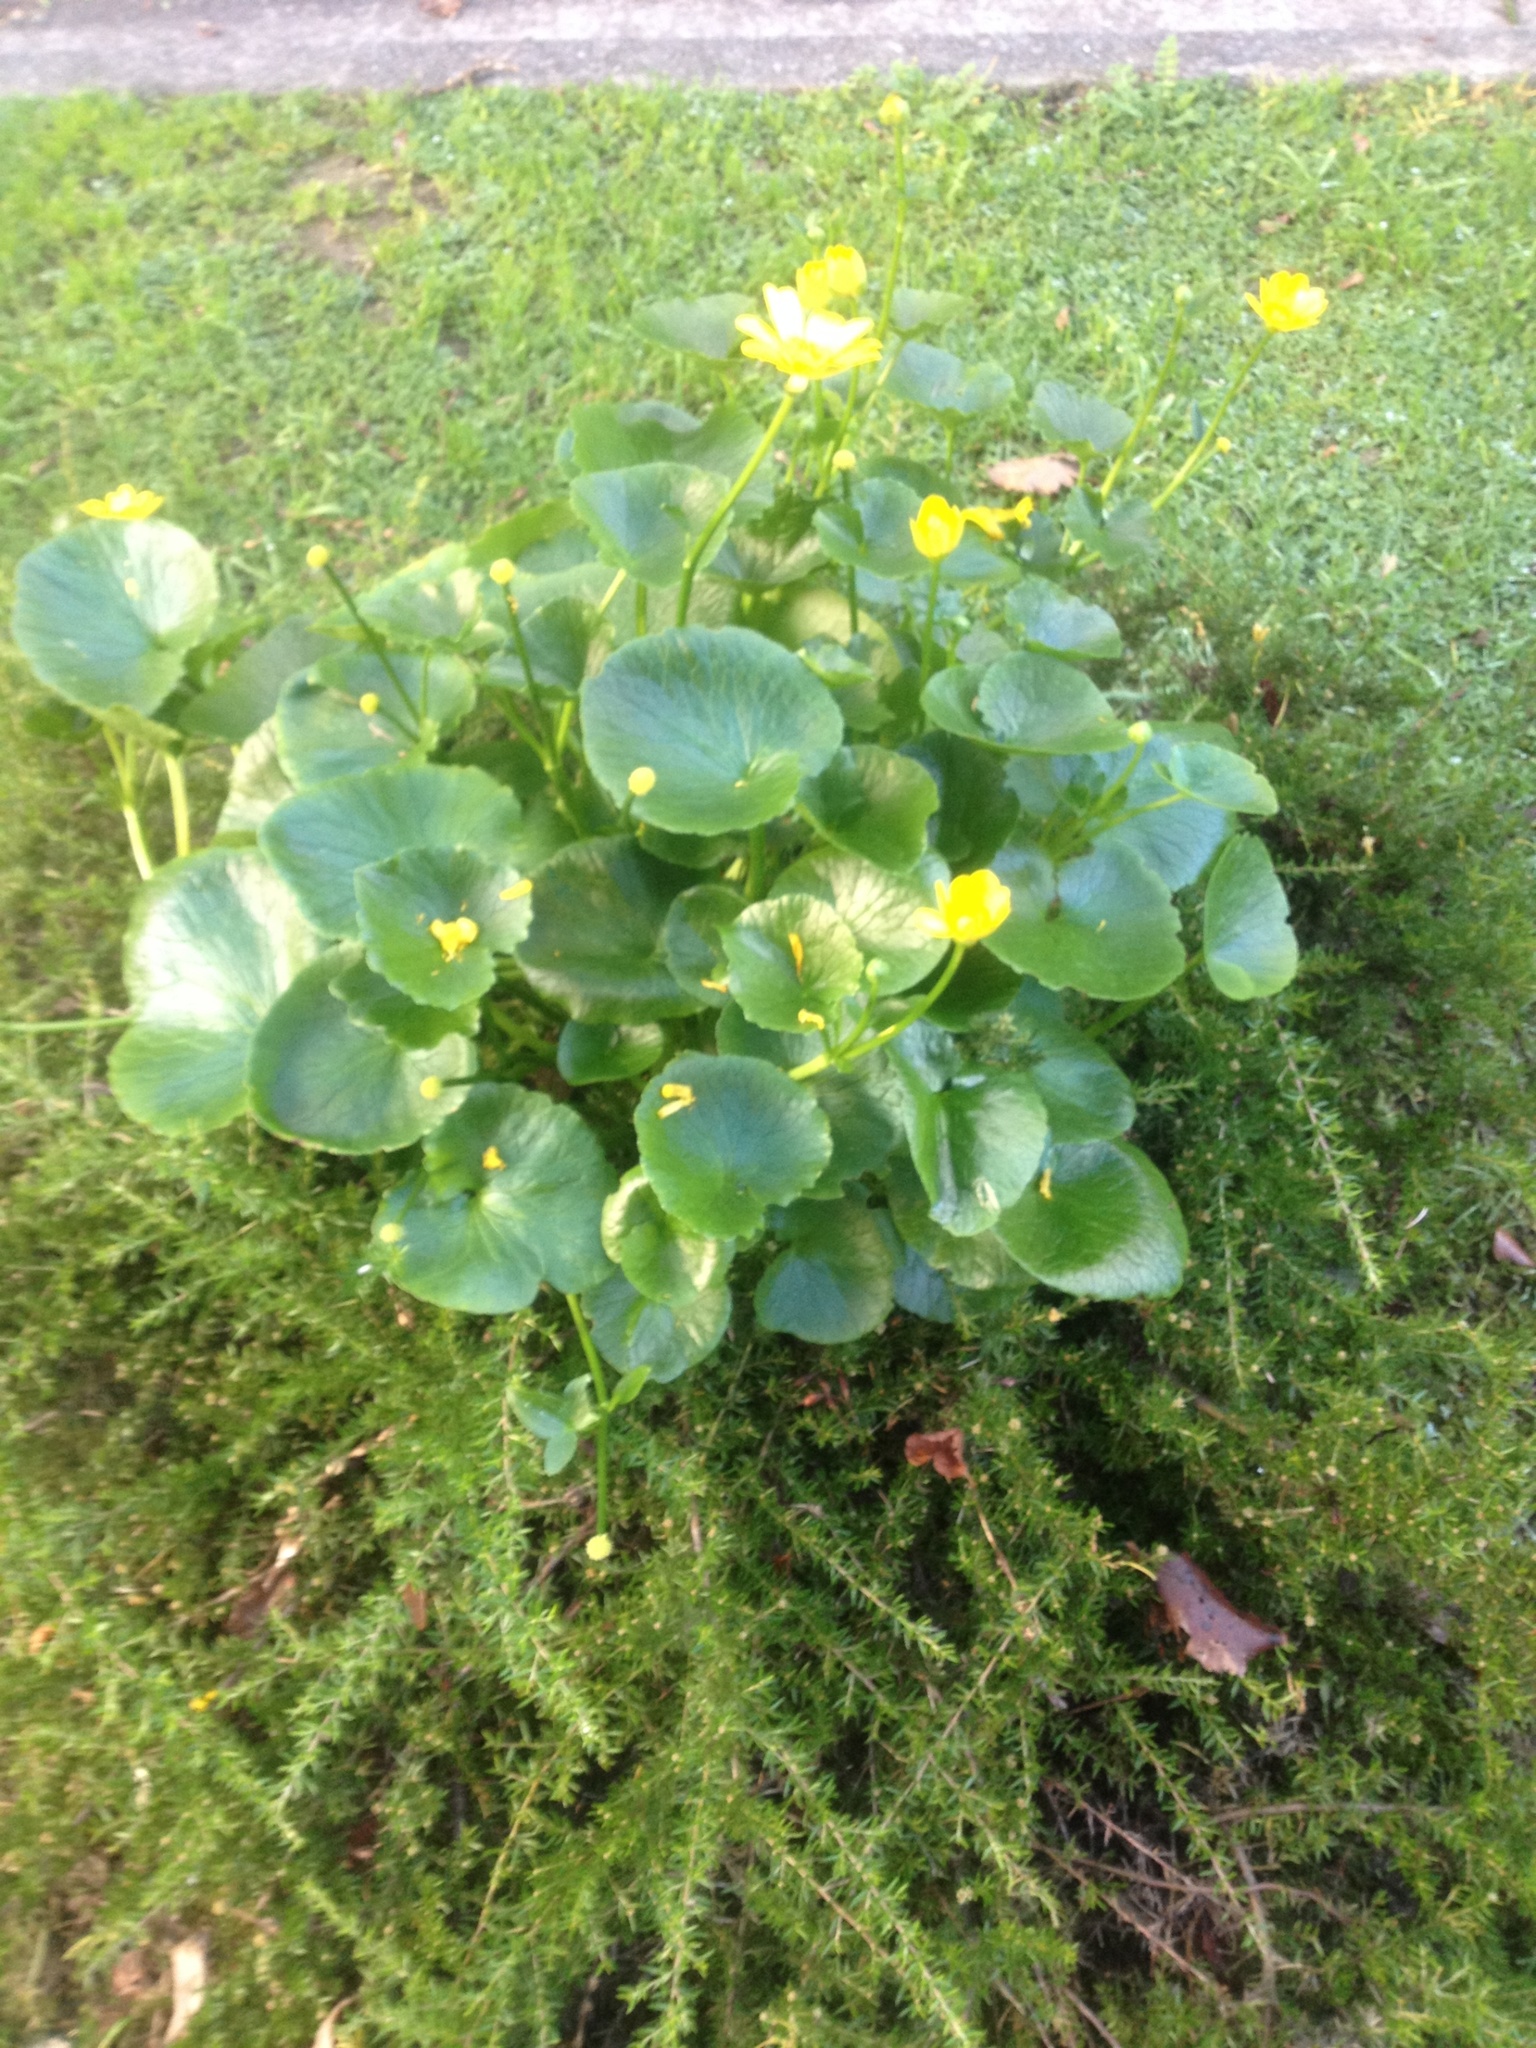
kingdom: Plantae
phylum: Tracheophyta
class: Magnoliopsida
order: Ranunculales
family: Ranunculaceae
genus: Ficaria
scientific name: Ficaria grandiflora
